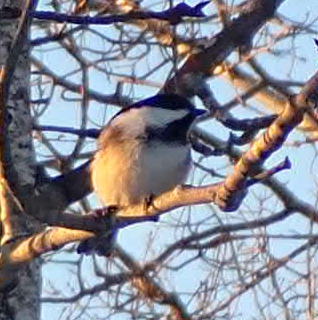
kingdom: Animalia
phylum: Chordata
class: Aves
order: Passeriformes
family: Paridae
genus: Poecile
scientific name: Poecile atricapillus
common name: Black-capped chickadee
